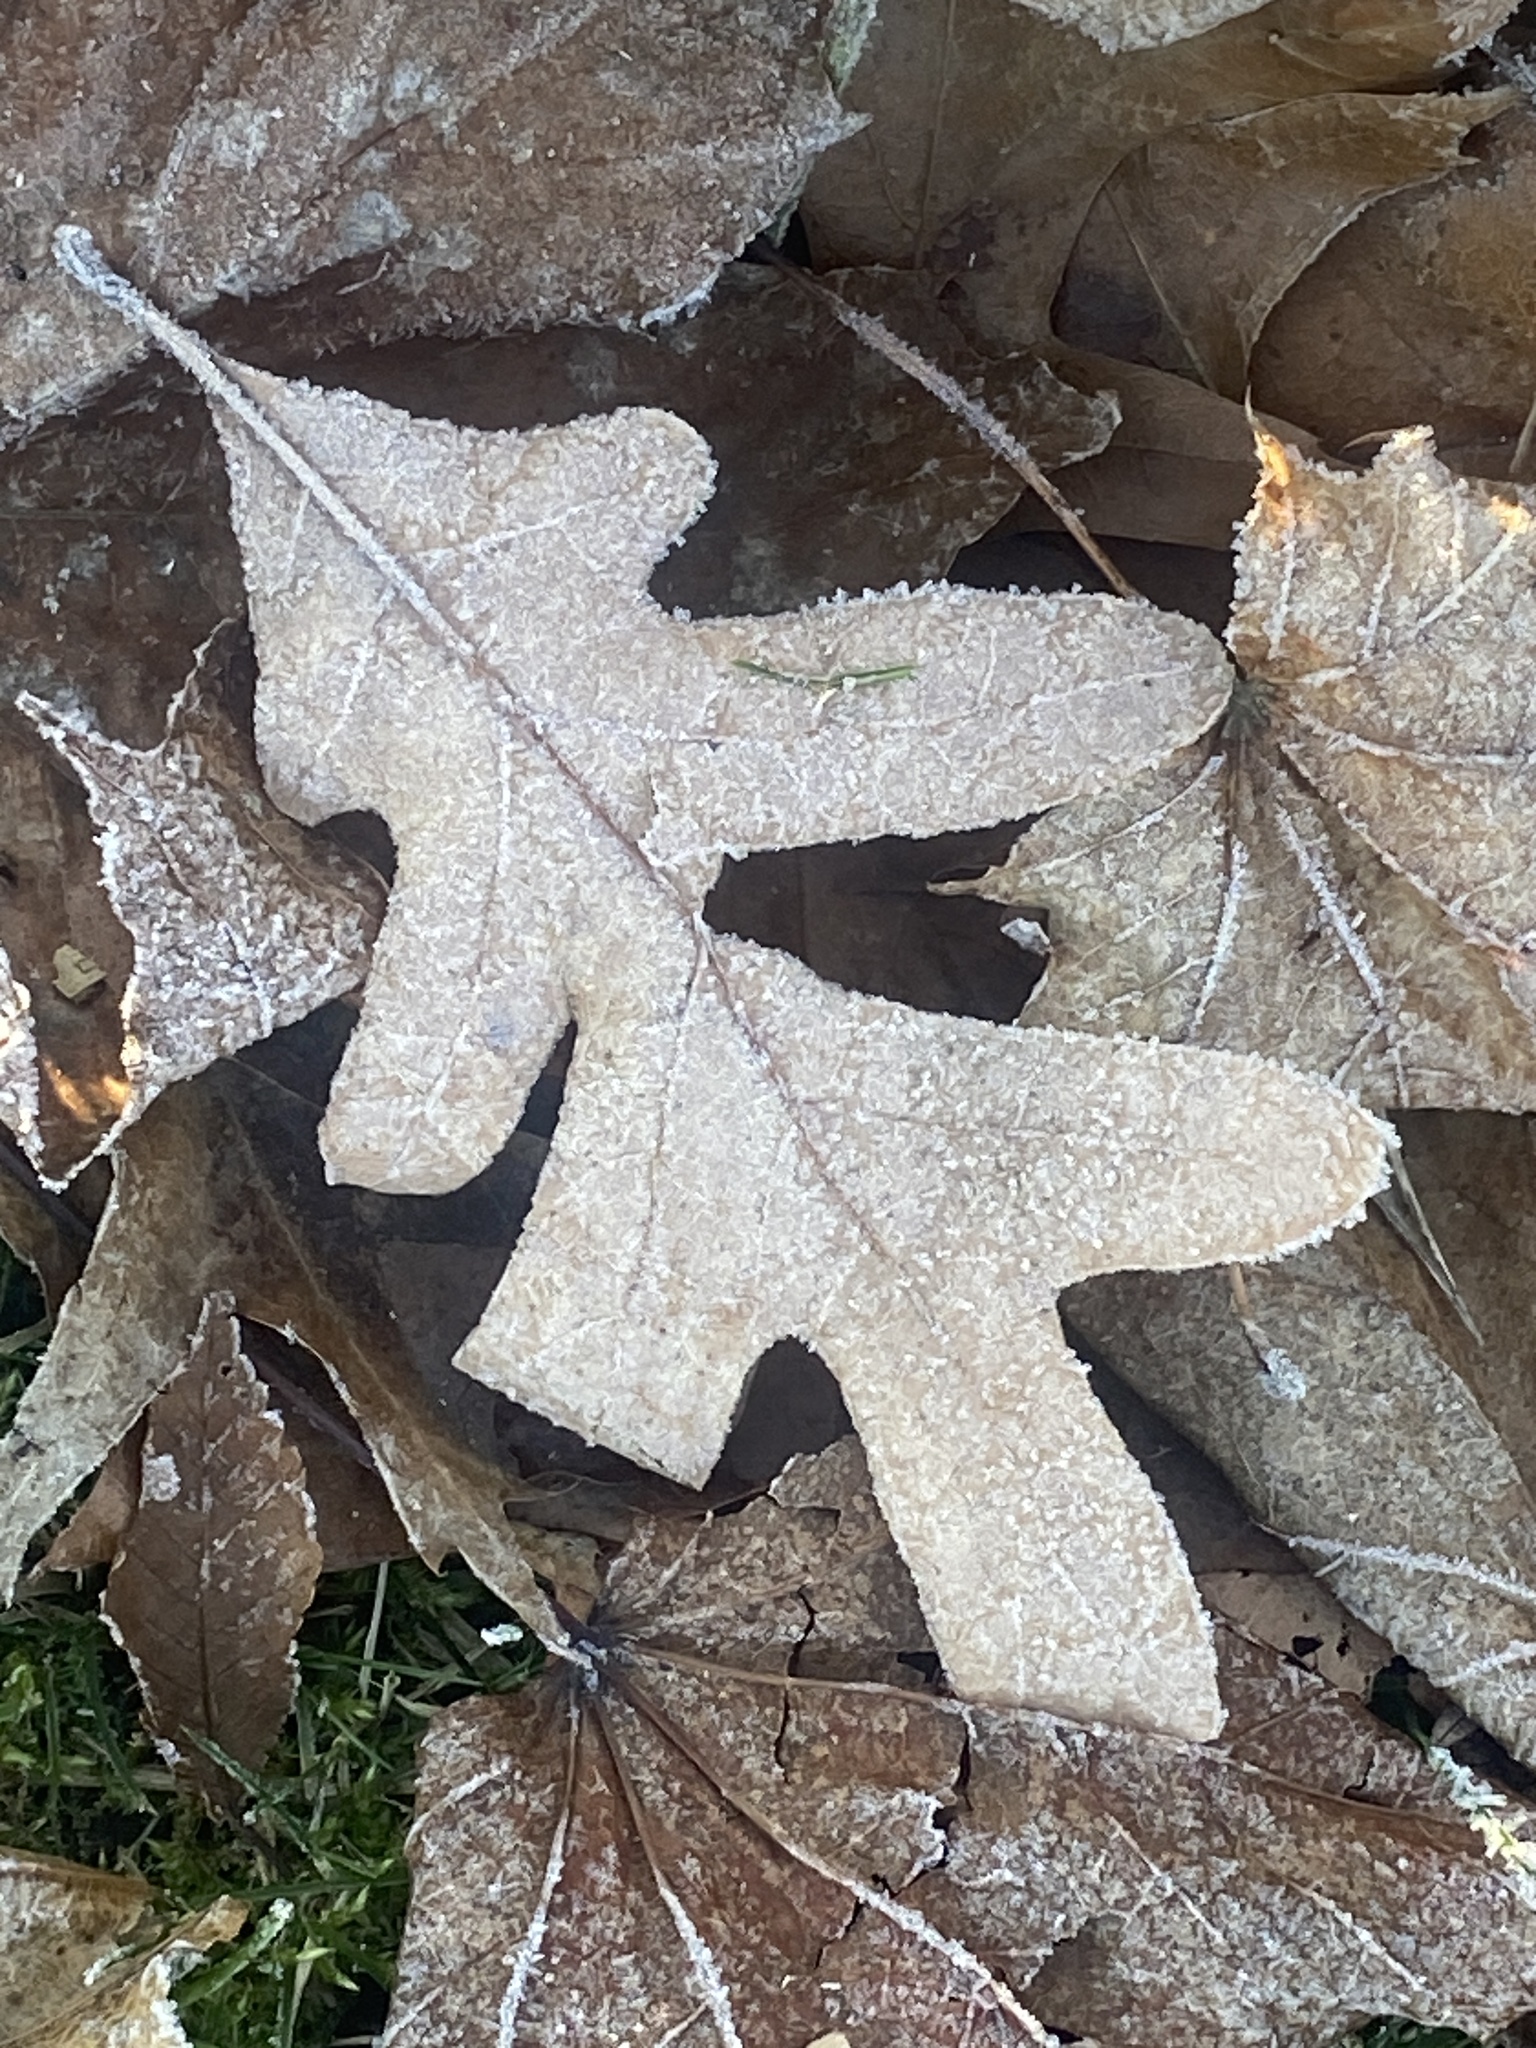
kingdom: Plantae
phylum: Tracheophyta
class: Magnoliopsida
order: Fagales
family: Fagaceae
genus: Quercus
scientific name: Quercus alba
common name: White oak
